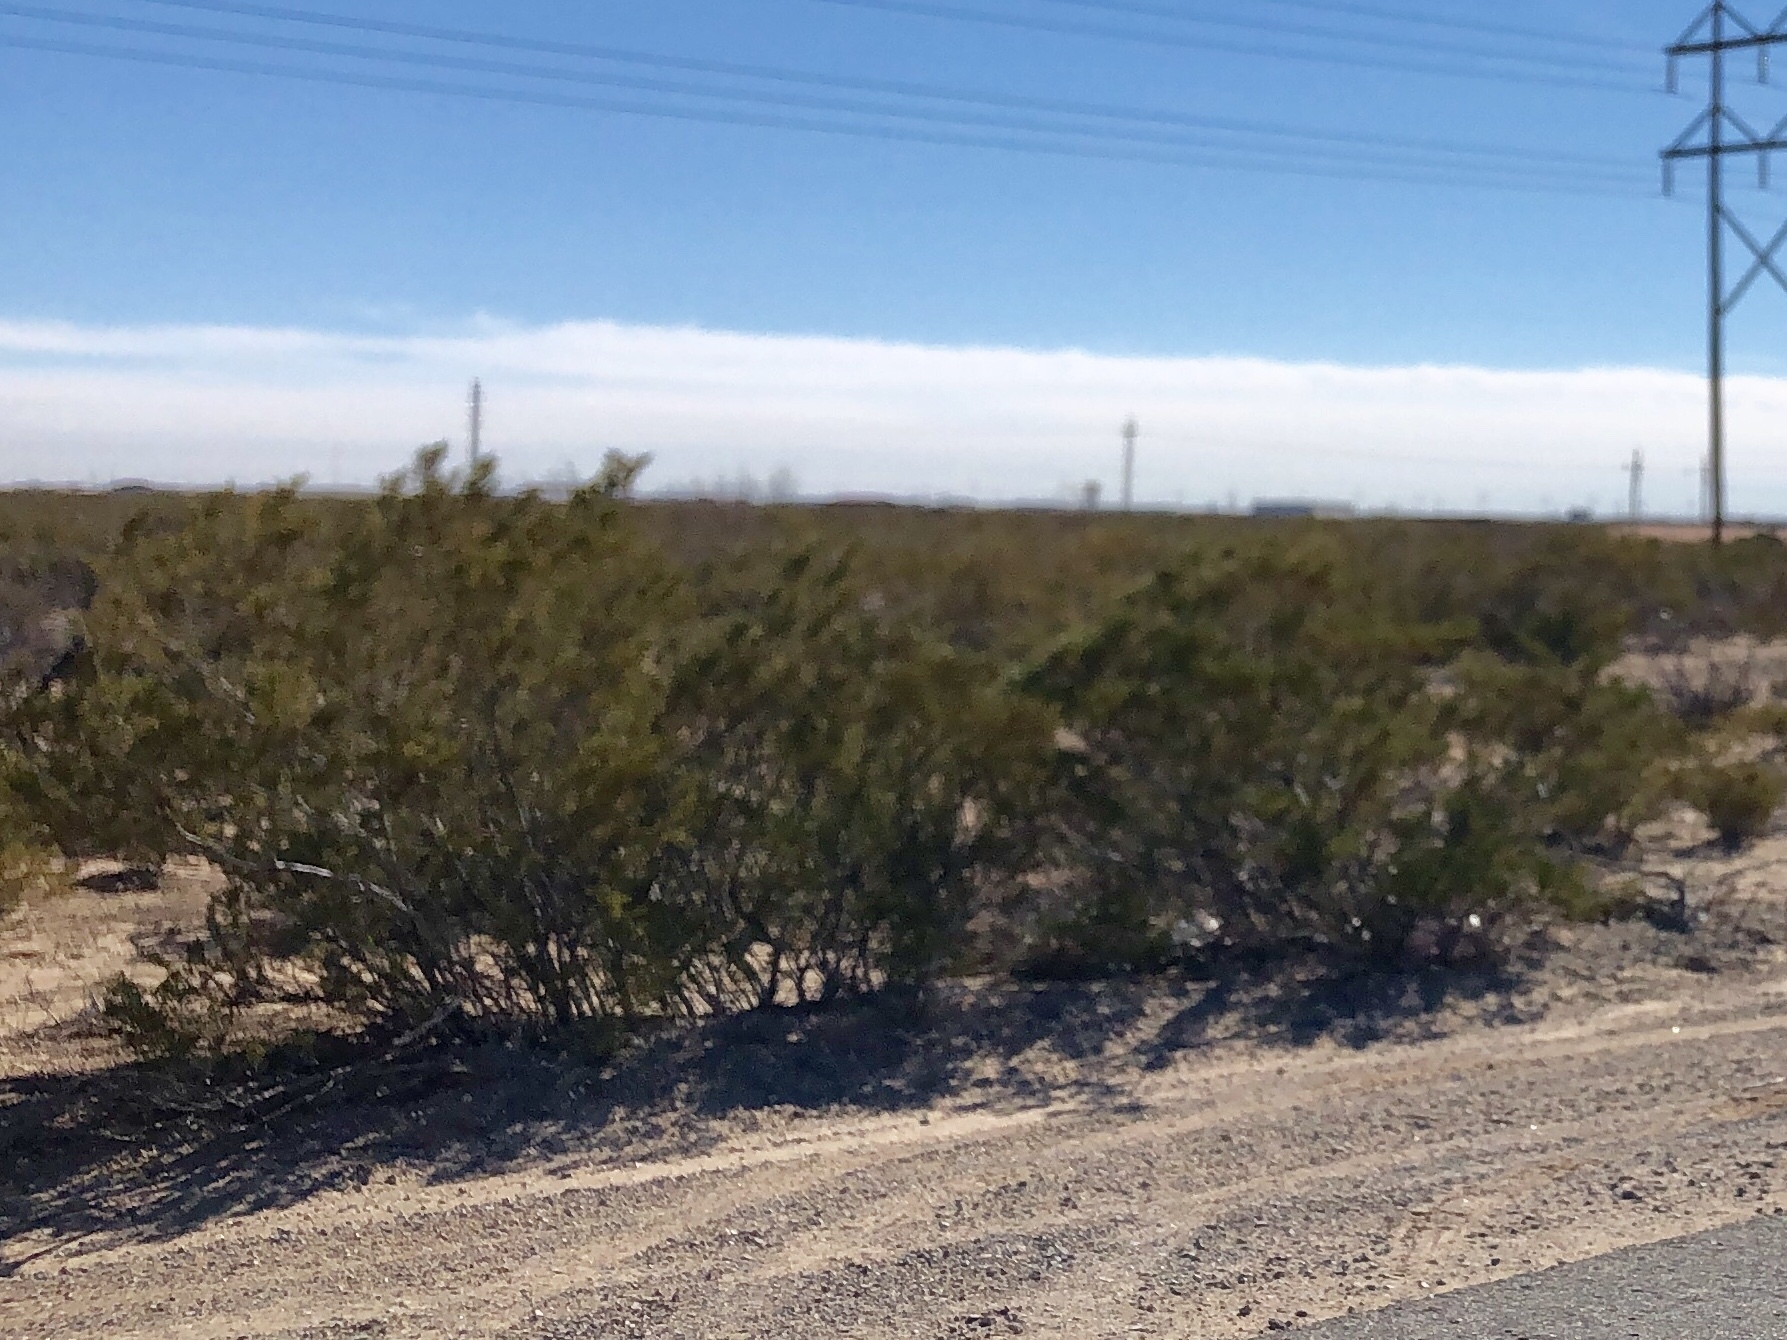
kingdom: Plantae
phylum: Tracheophyta
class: Magnoliopsida
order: Zygophyllales
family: Zygophyllaceae
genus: Larrea
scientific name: Larrea tridentata
